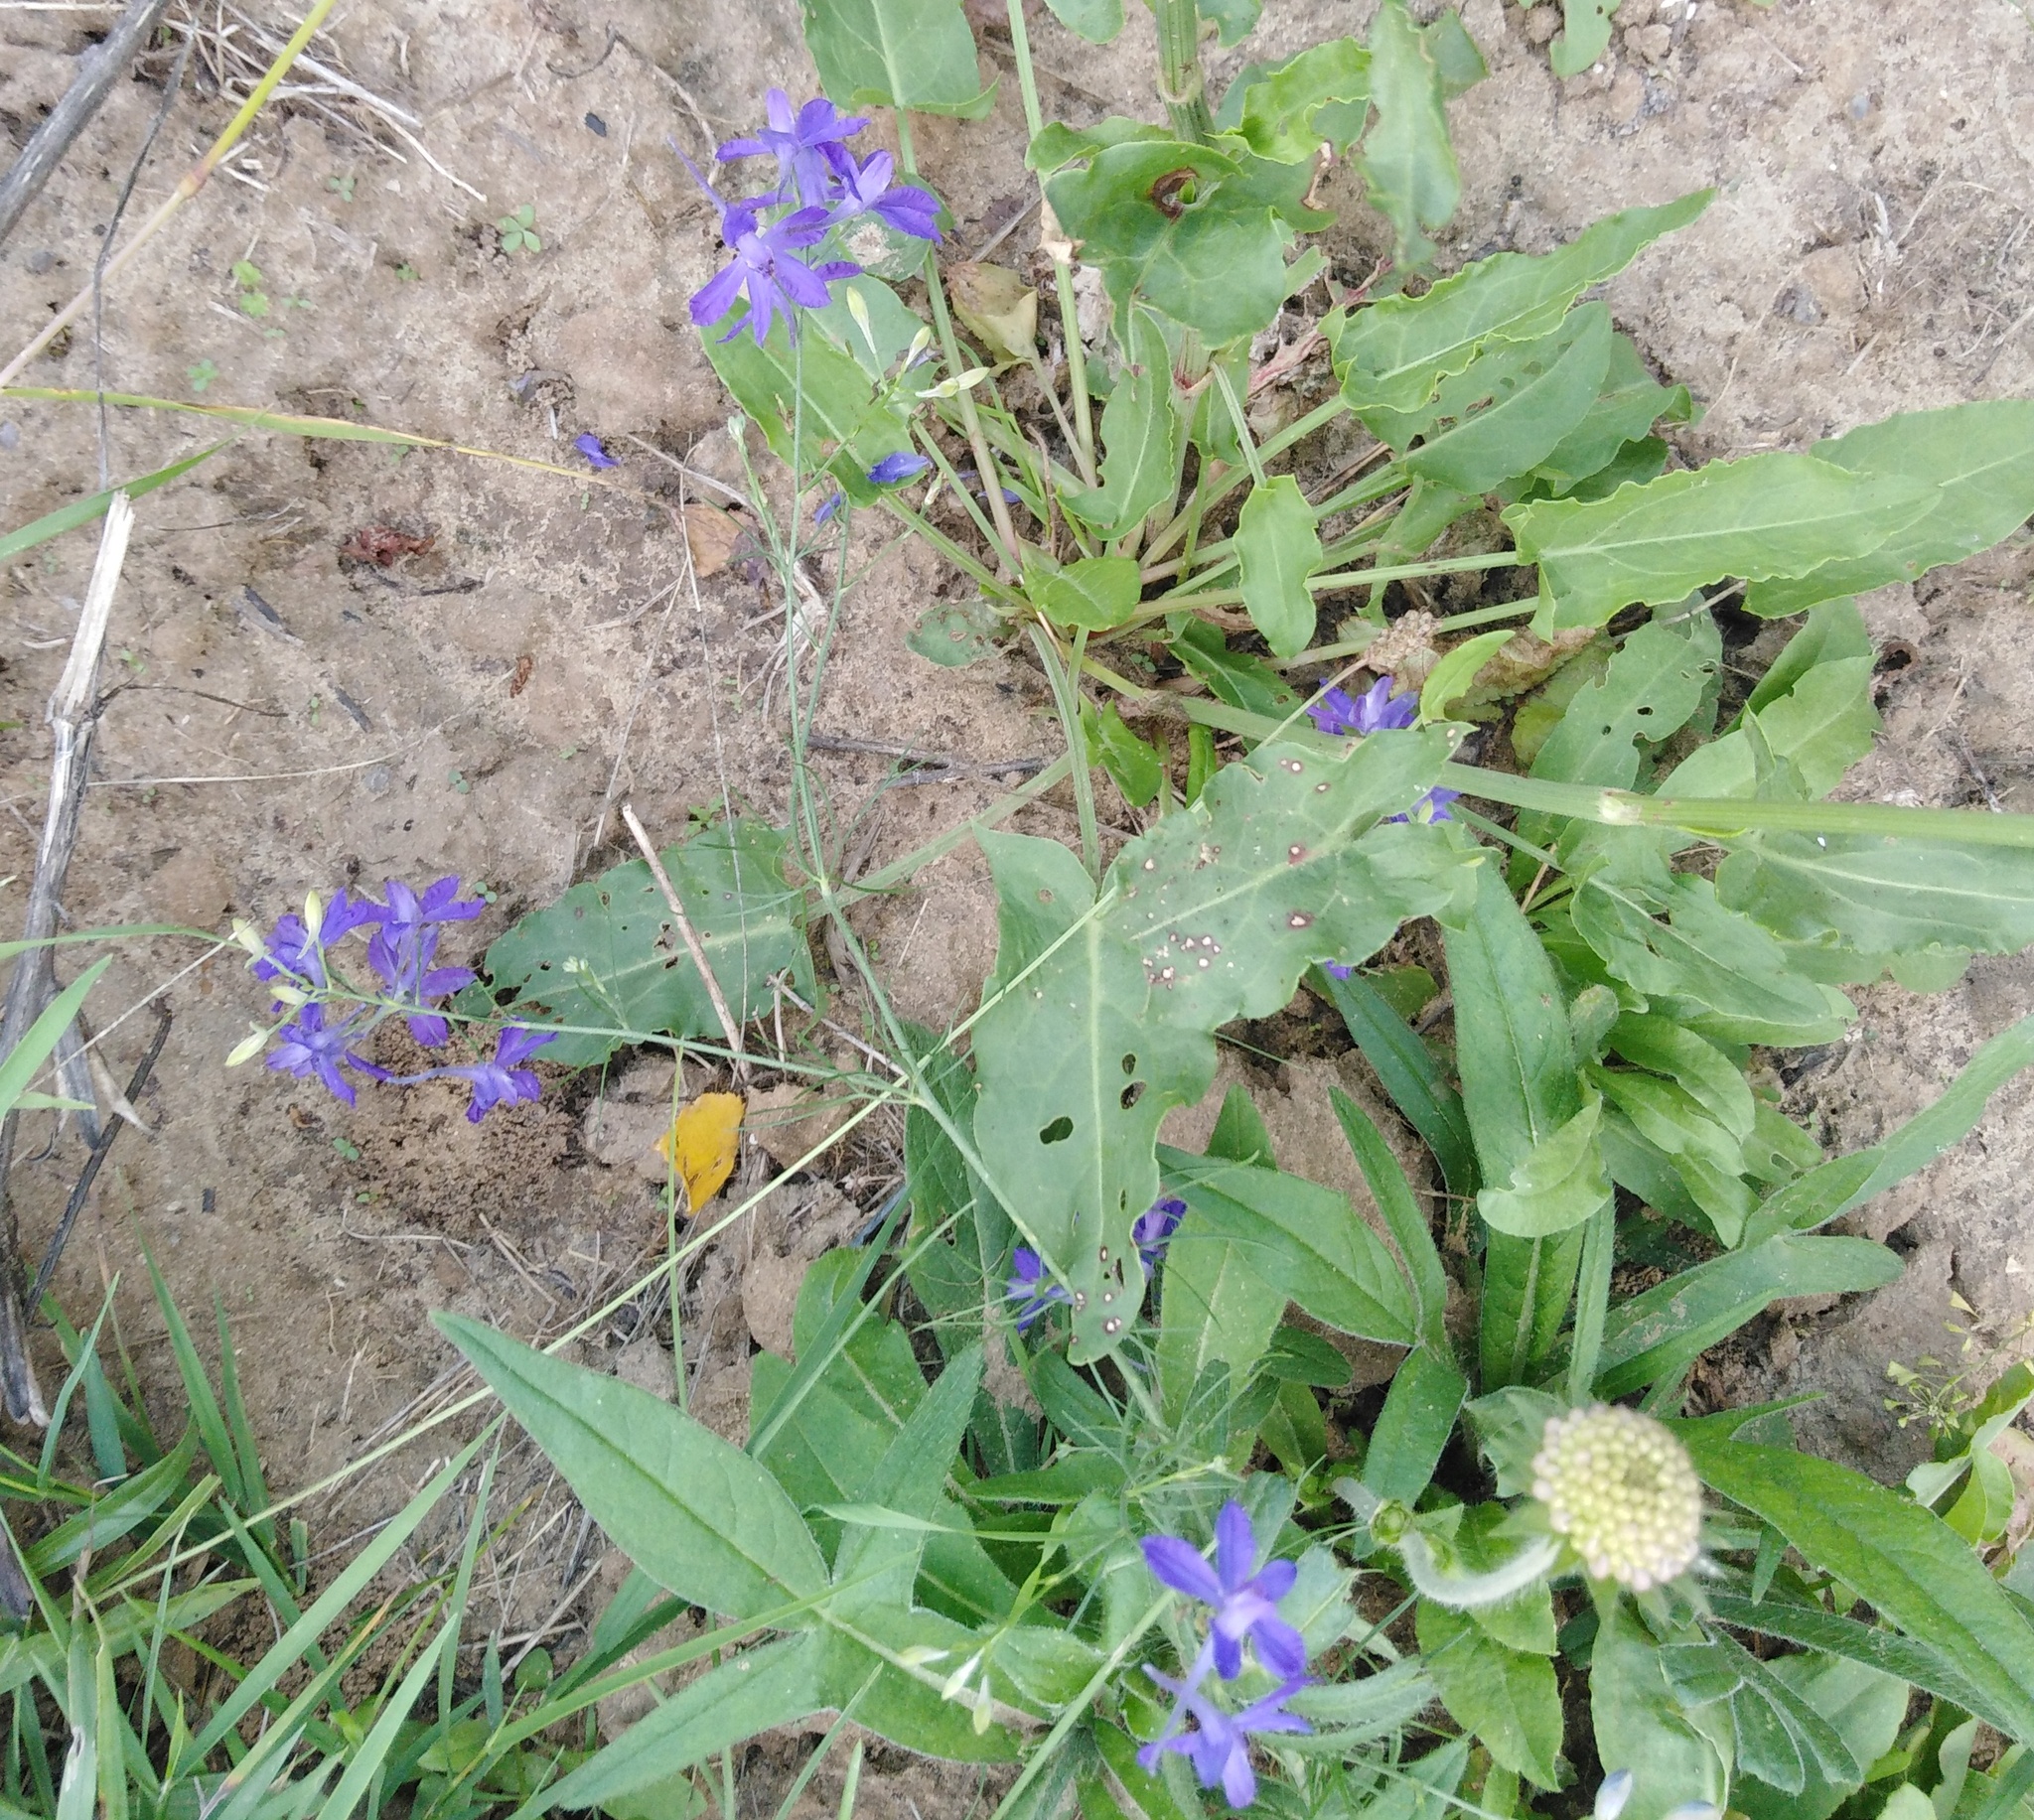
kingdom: Plantae
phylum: Tracheophyta
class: Magnoliopsida
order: Ranunculales
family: Ranunculaceae
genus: Delphinium
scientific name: Delphinium consolida
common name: Branching larkspur
